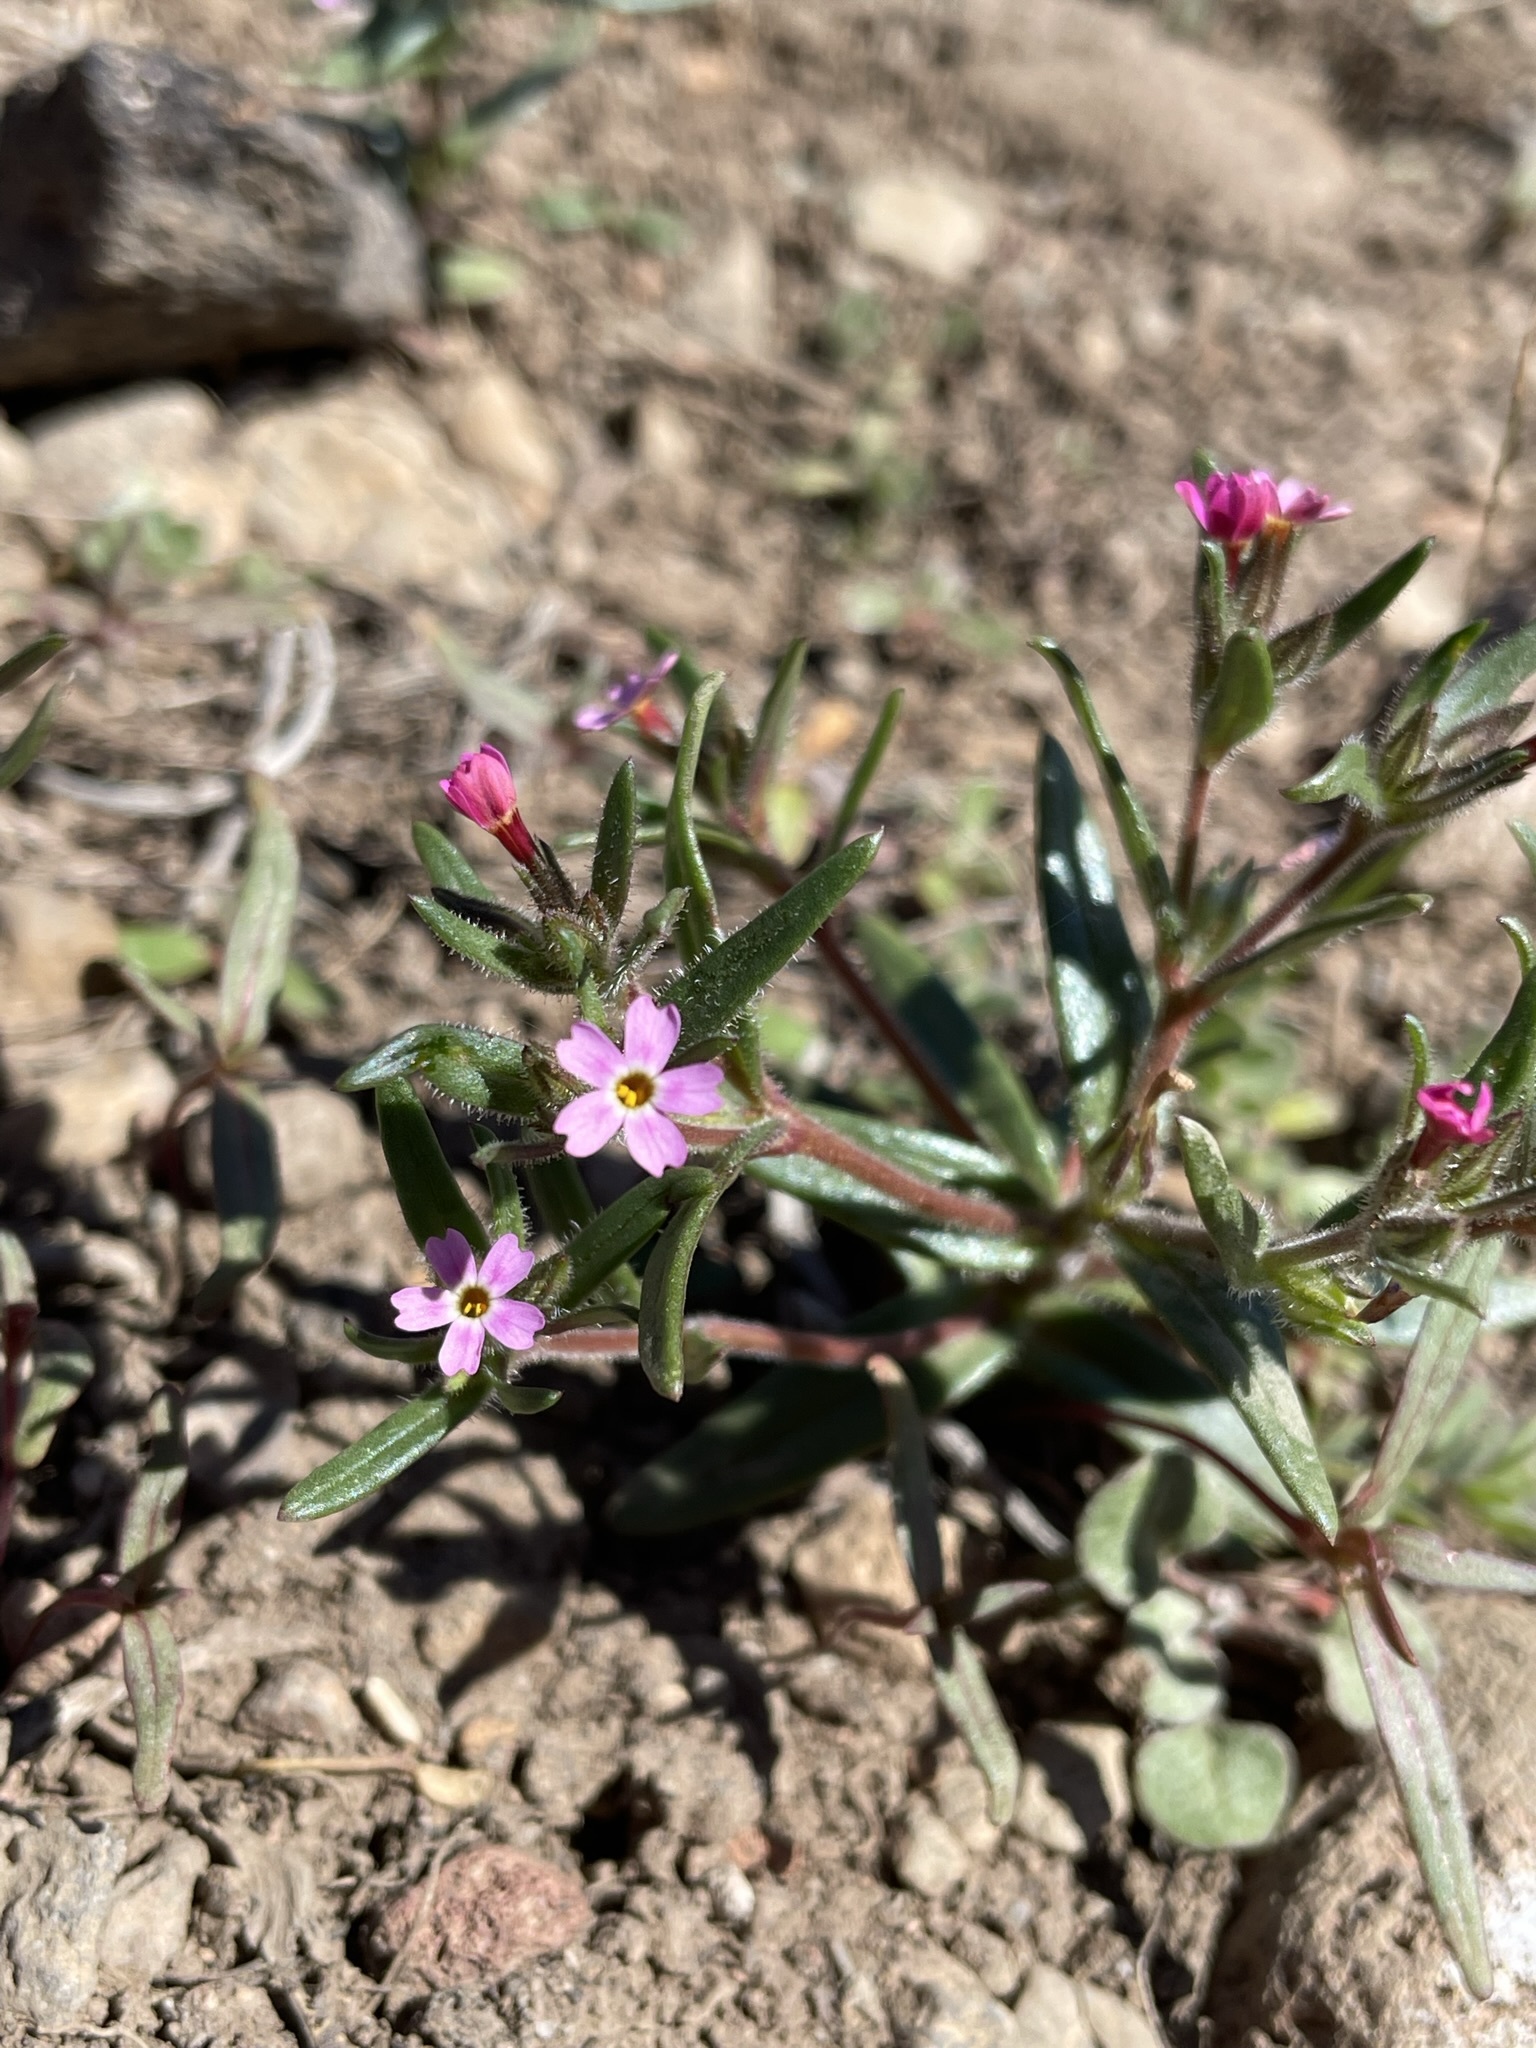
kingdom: Plantae
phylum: Tracheophyta
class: Magnoliopsida
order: Ericales
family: Polemoniaceae
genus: Phlox
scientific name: Phlox gracilis
